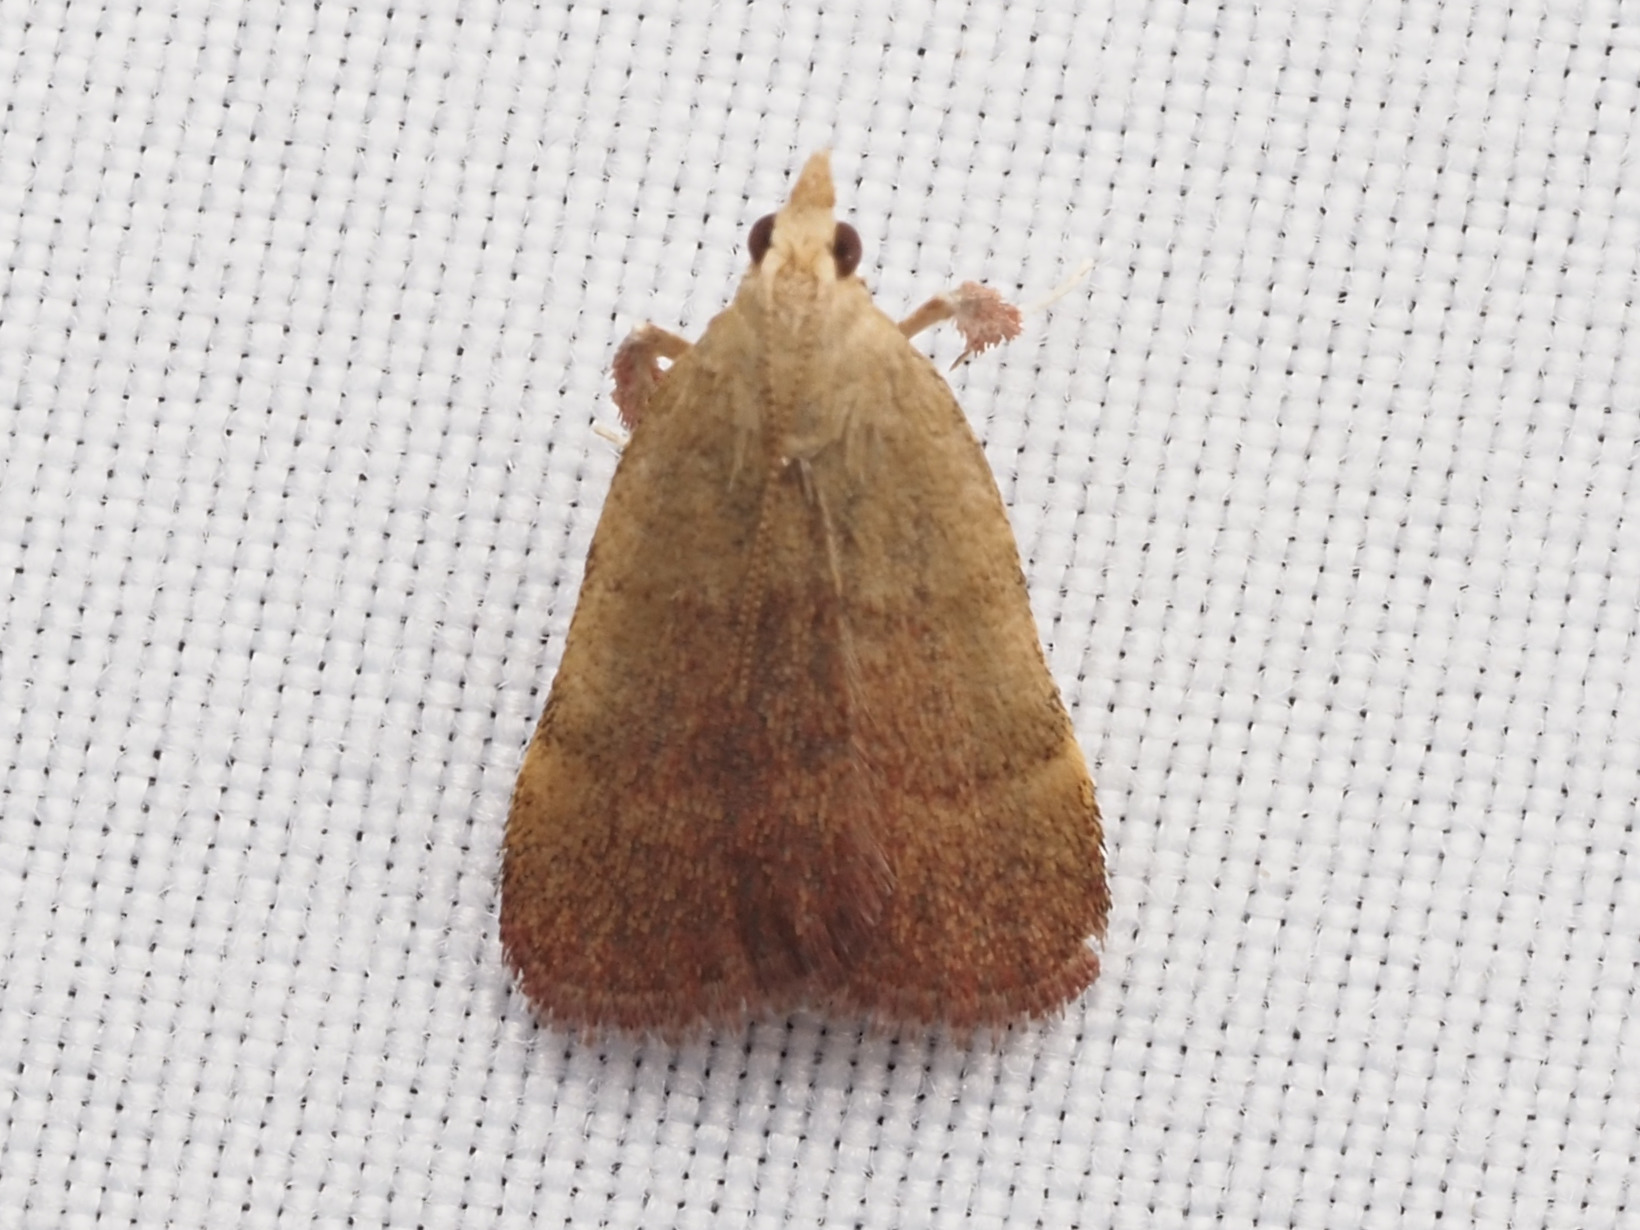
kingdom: Animalia
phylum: Arthropoda
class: Insecta
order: Lepidoptera
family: Pyralidae
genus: Condylolomia
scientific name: Condylolomia participialis
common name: Drab condylolomia moth
